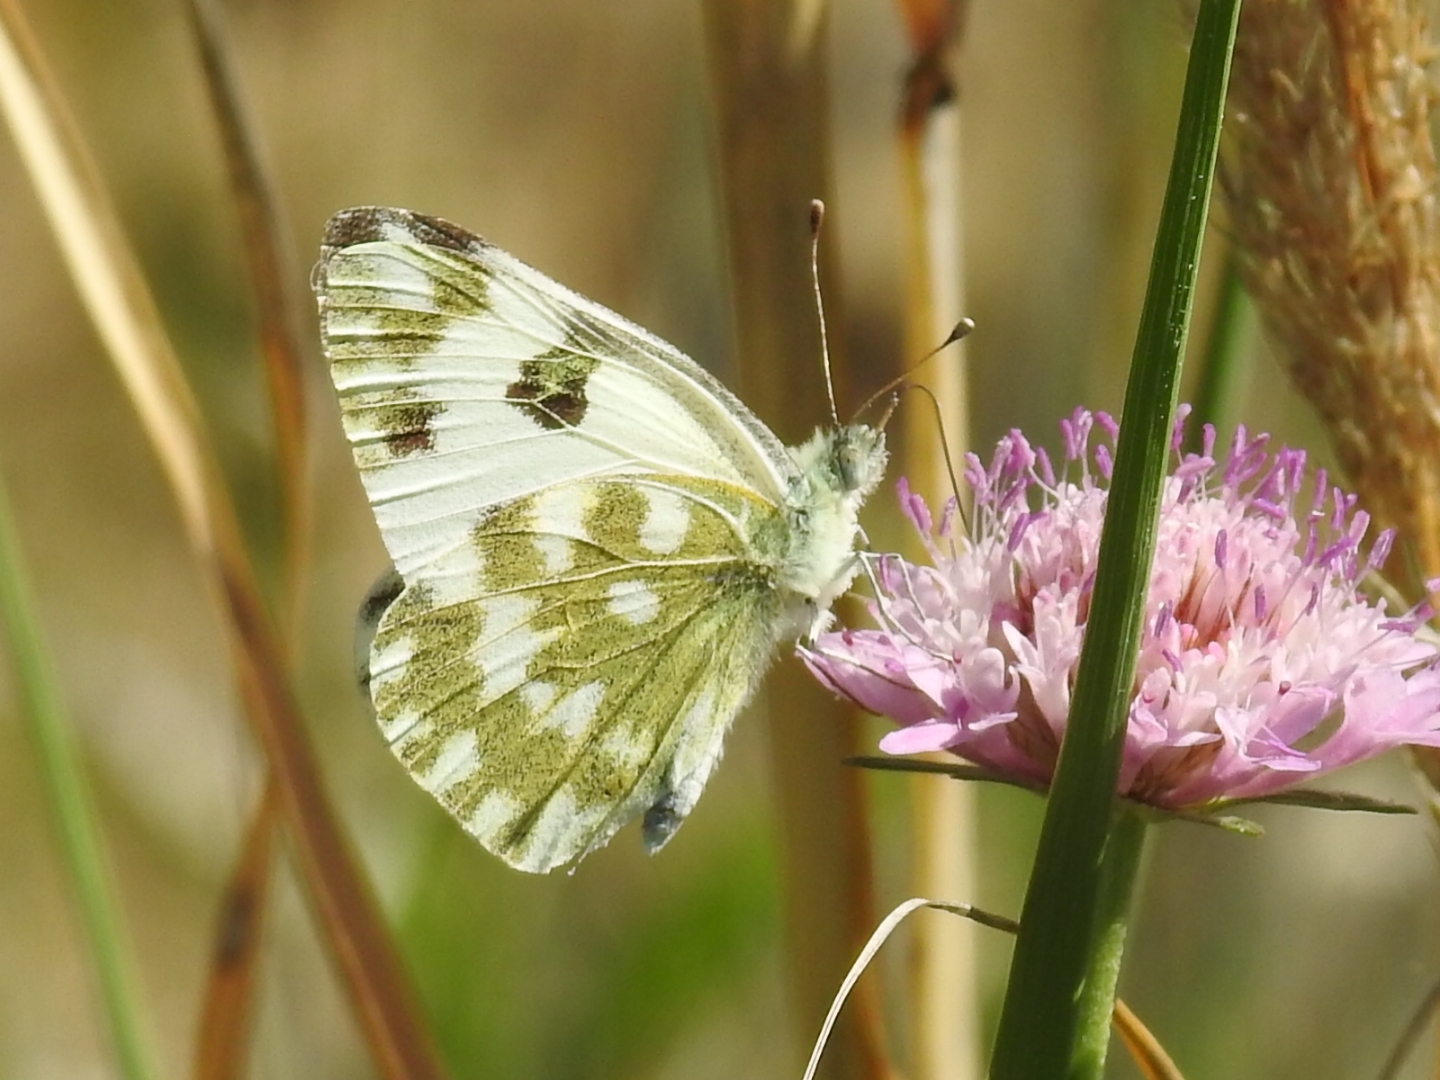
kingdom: Animalia
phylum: Arthropoda
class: Insecta
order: Lepidoptera
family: Pieridae
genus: Pontia
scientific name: Pontia edusa
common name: Eastern bath white
